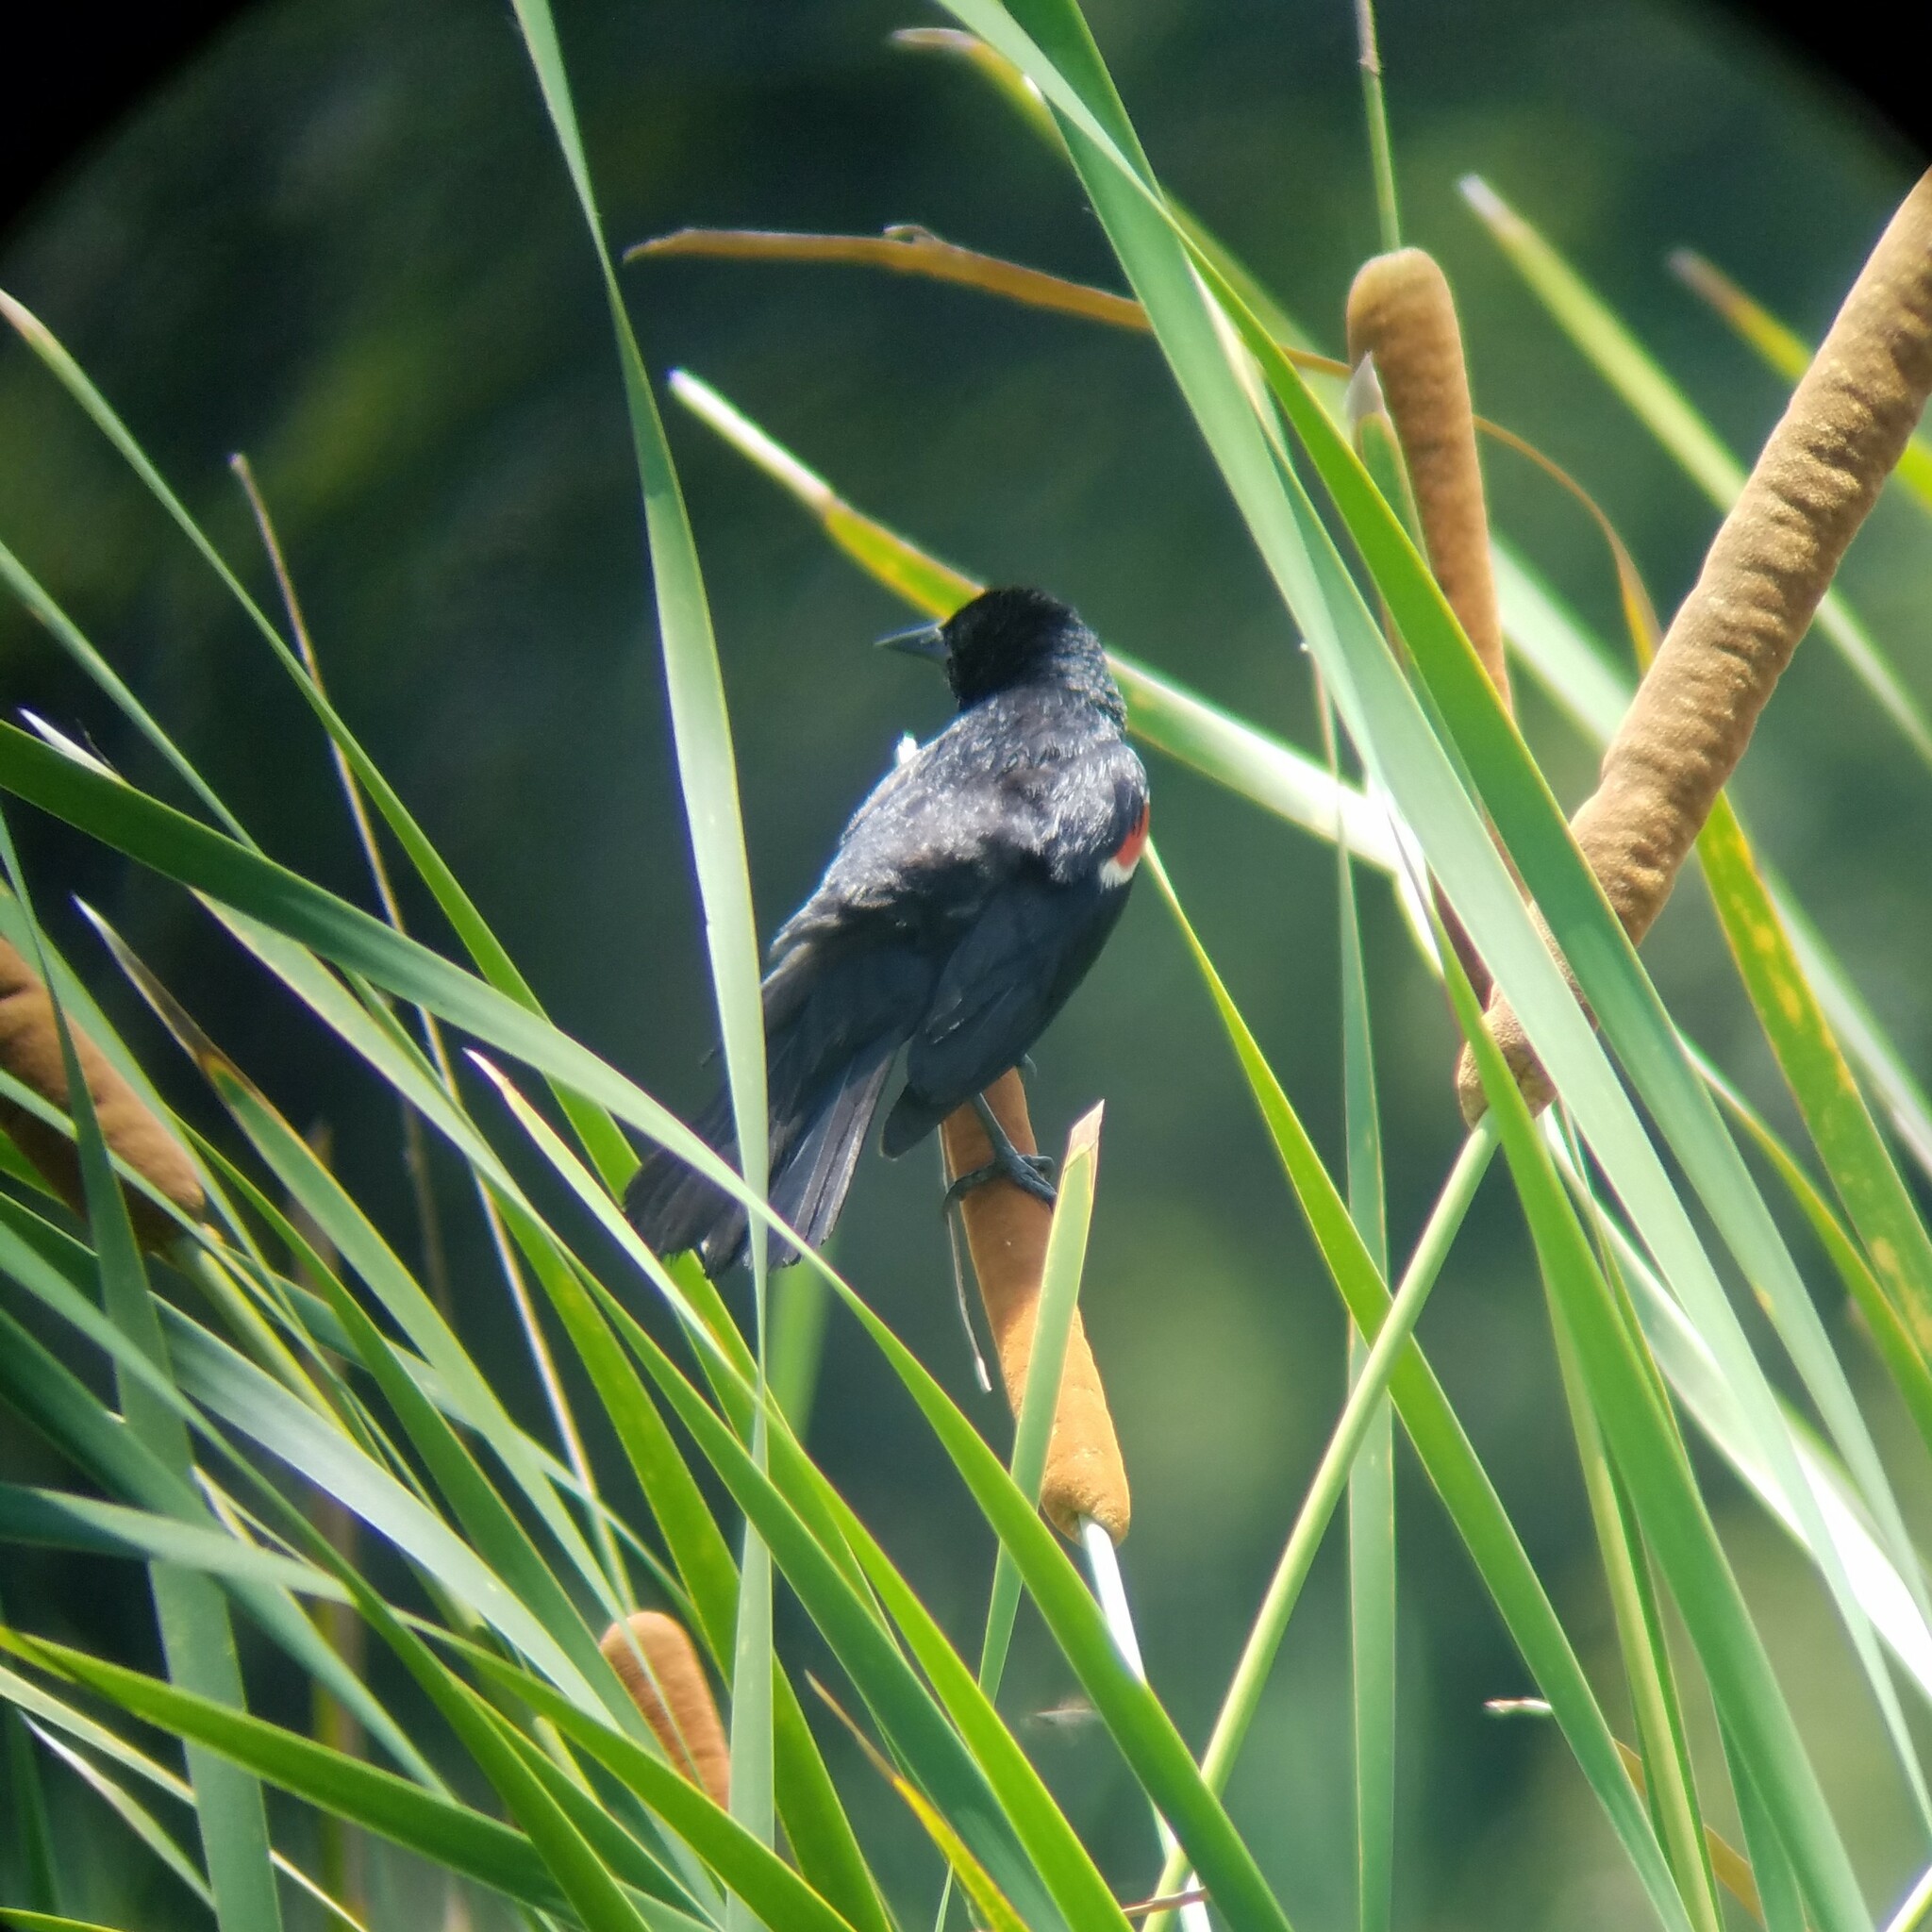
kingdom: Animalia
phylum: Chordata
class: Aves
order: Passeriformes
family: Icteridae
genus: Agelaius
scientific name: Agelaius phoeniceus
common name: Red-winged blackbird
